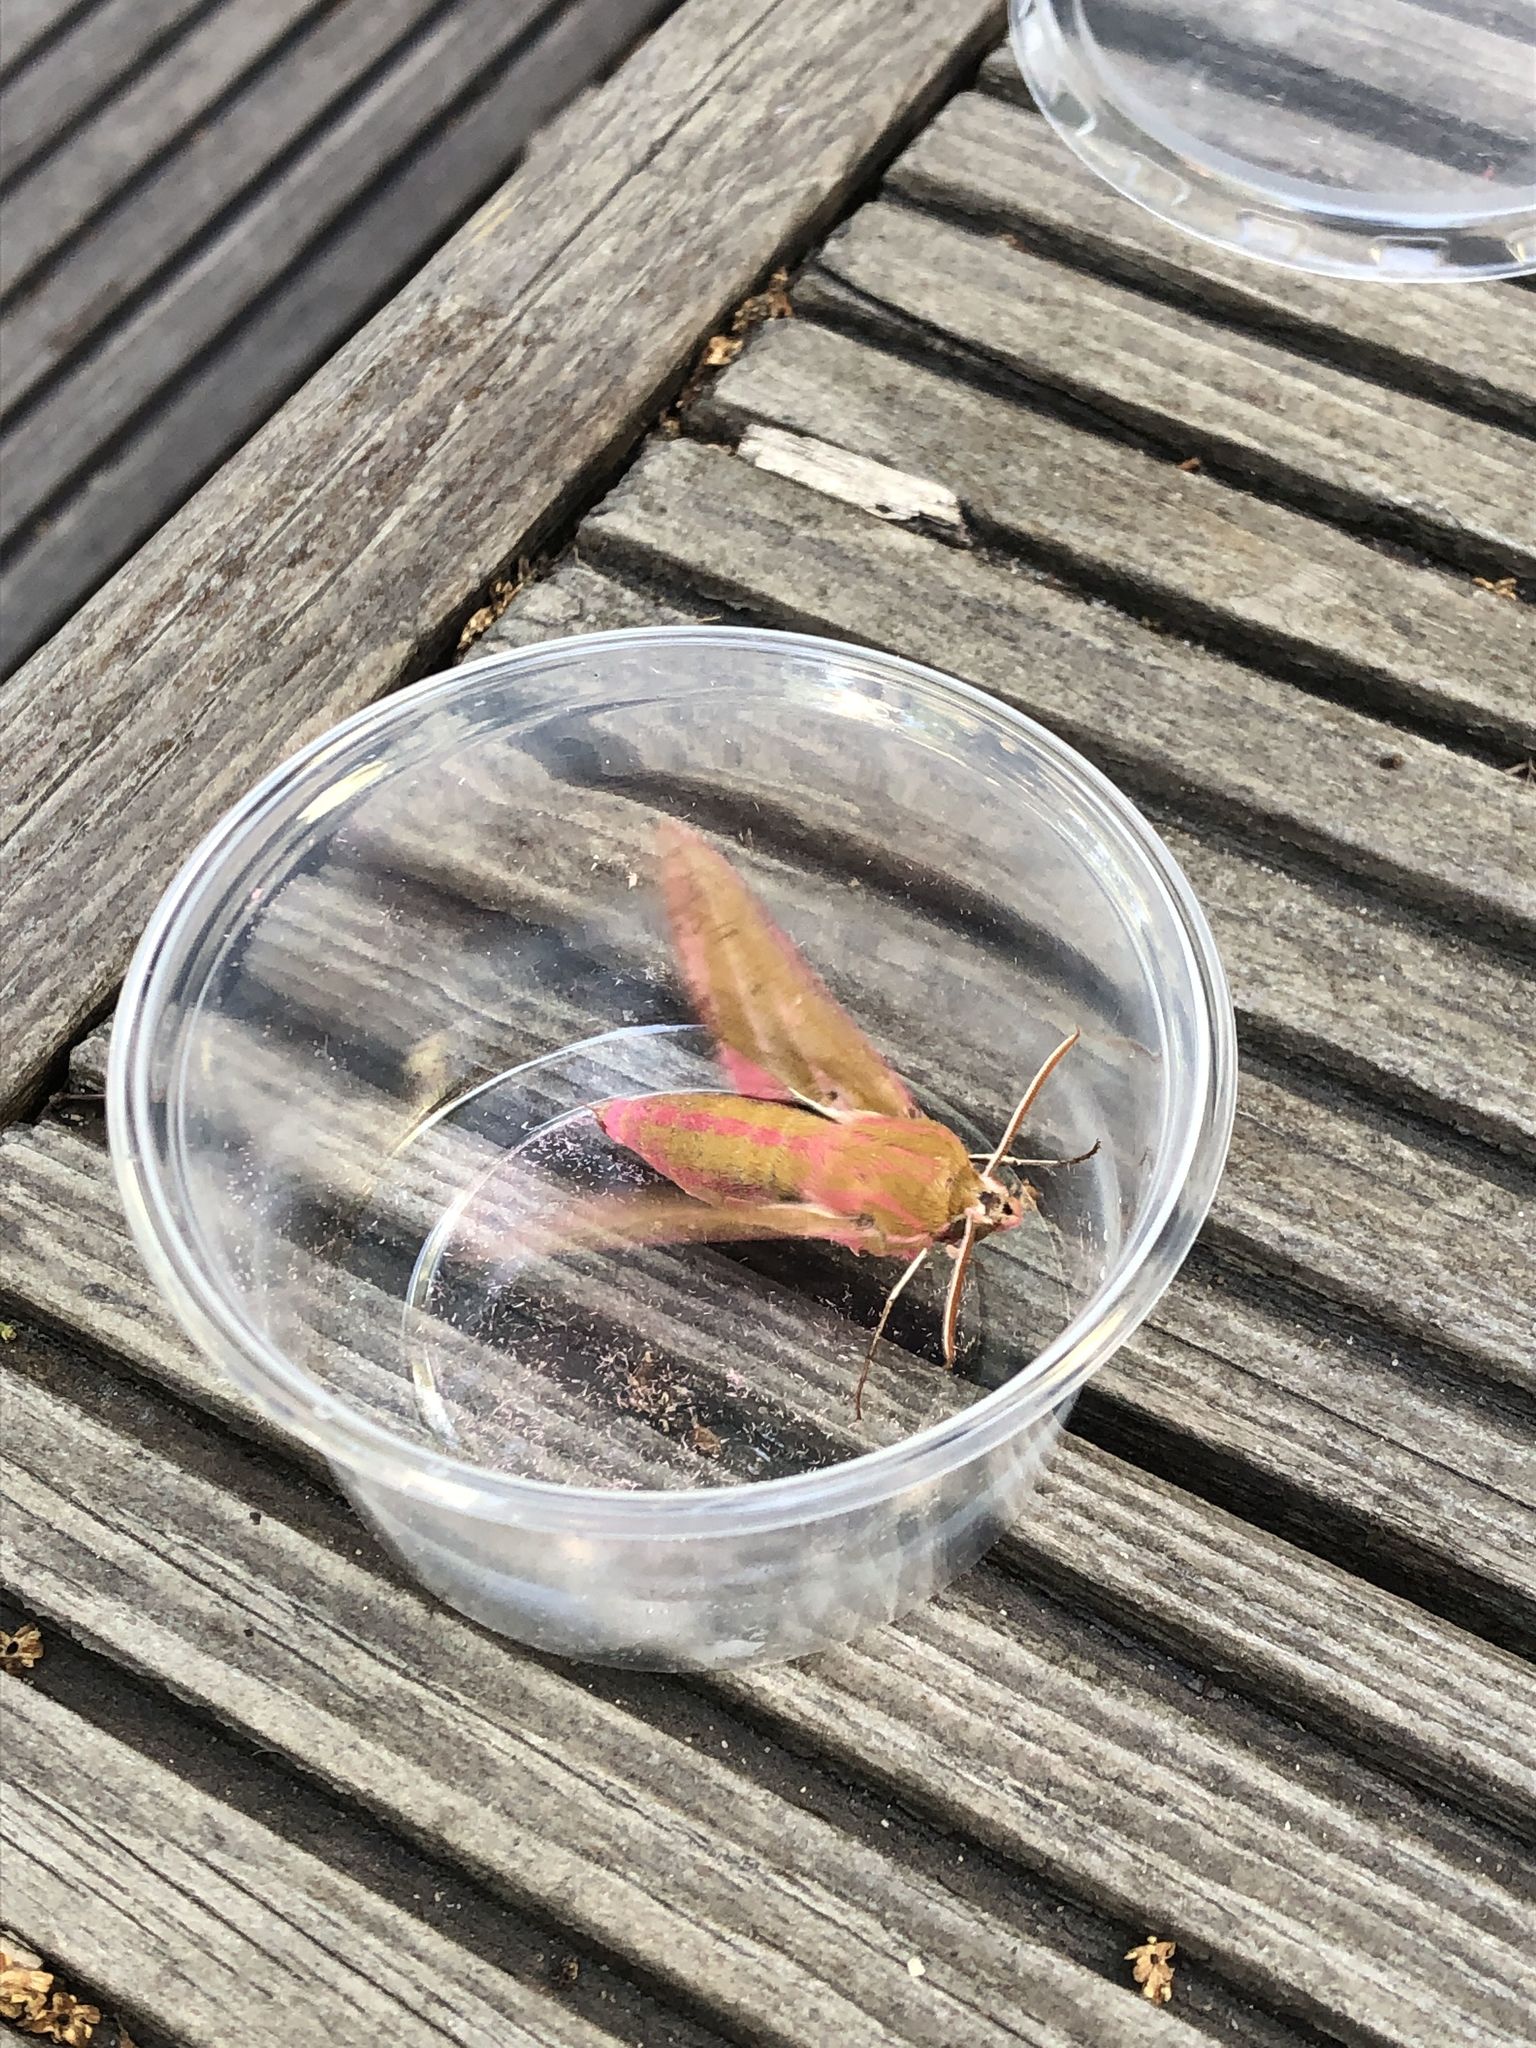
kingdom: Animalia
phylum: Arthropoda
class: Insecta
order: Lepidoptera
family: Sphingidae
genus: Deilephila
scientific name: Deilephila elpenor
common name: Elephant hawk-moth
